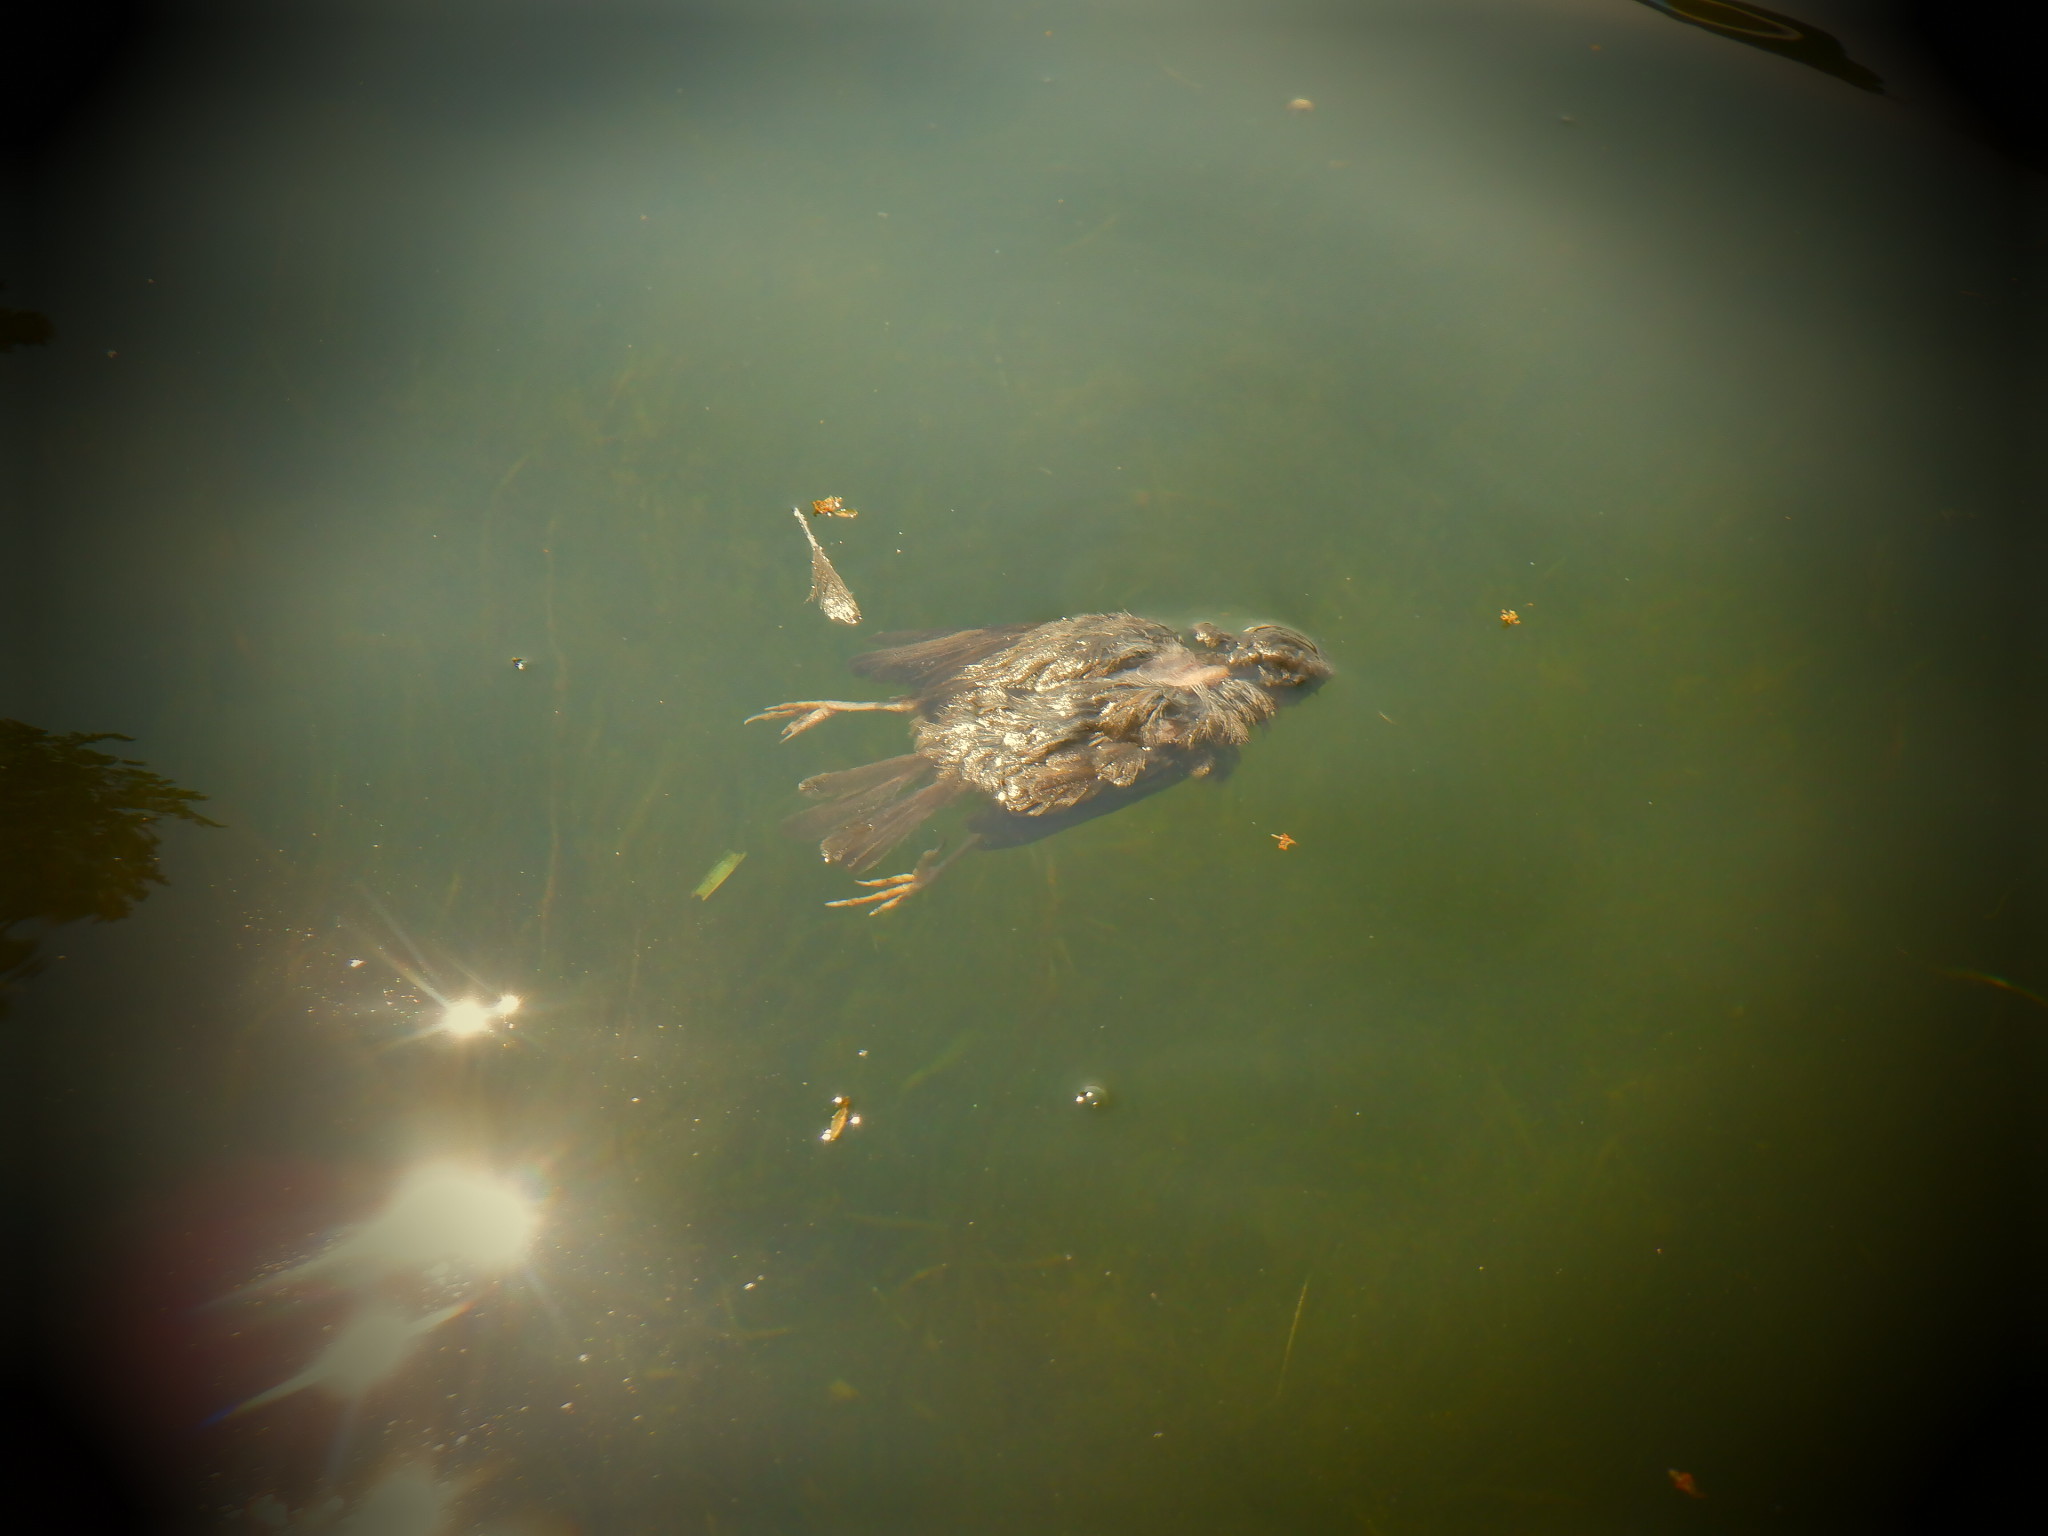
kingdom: Animalia
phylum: Chordata
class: Aves
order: Passeriformes
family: Turdidae
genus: Turdus
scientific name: Turdus migratorius
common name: American robin
